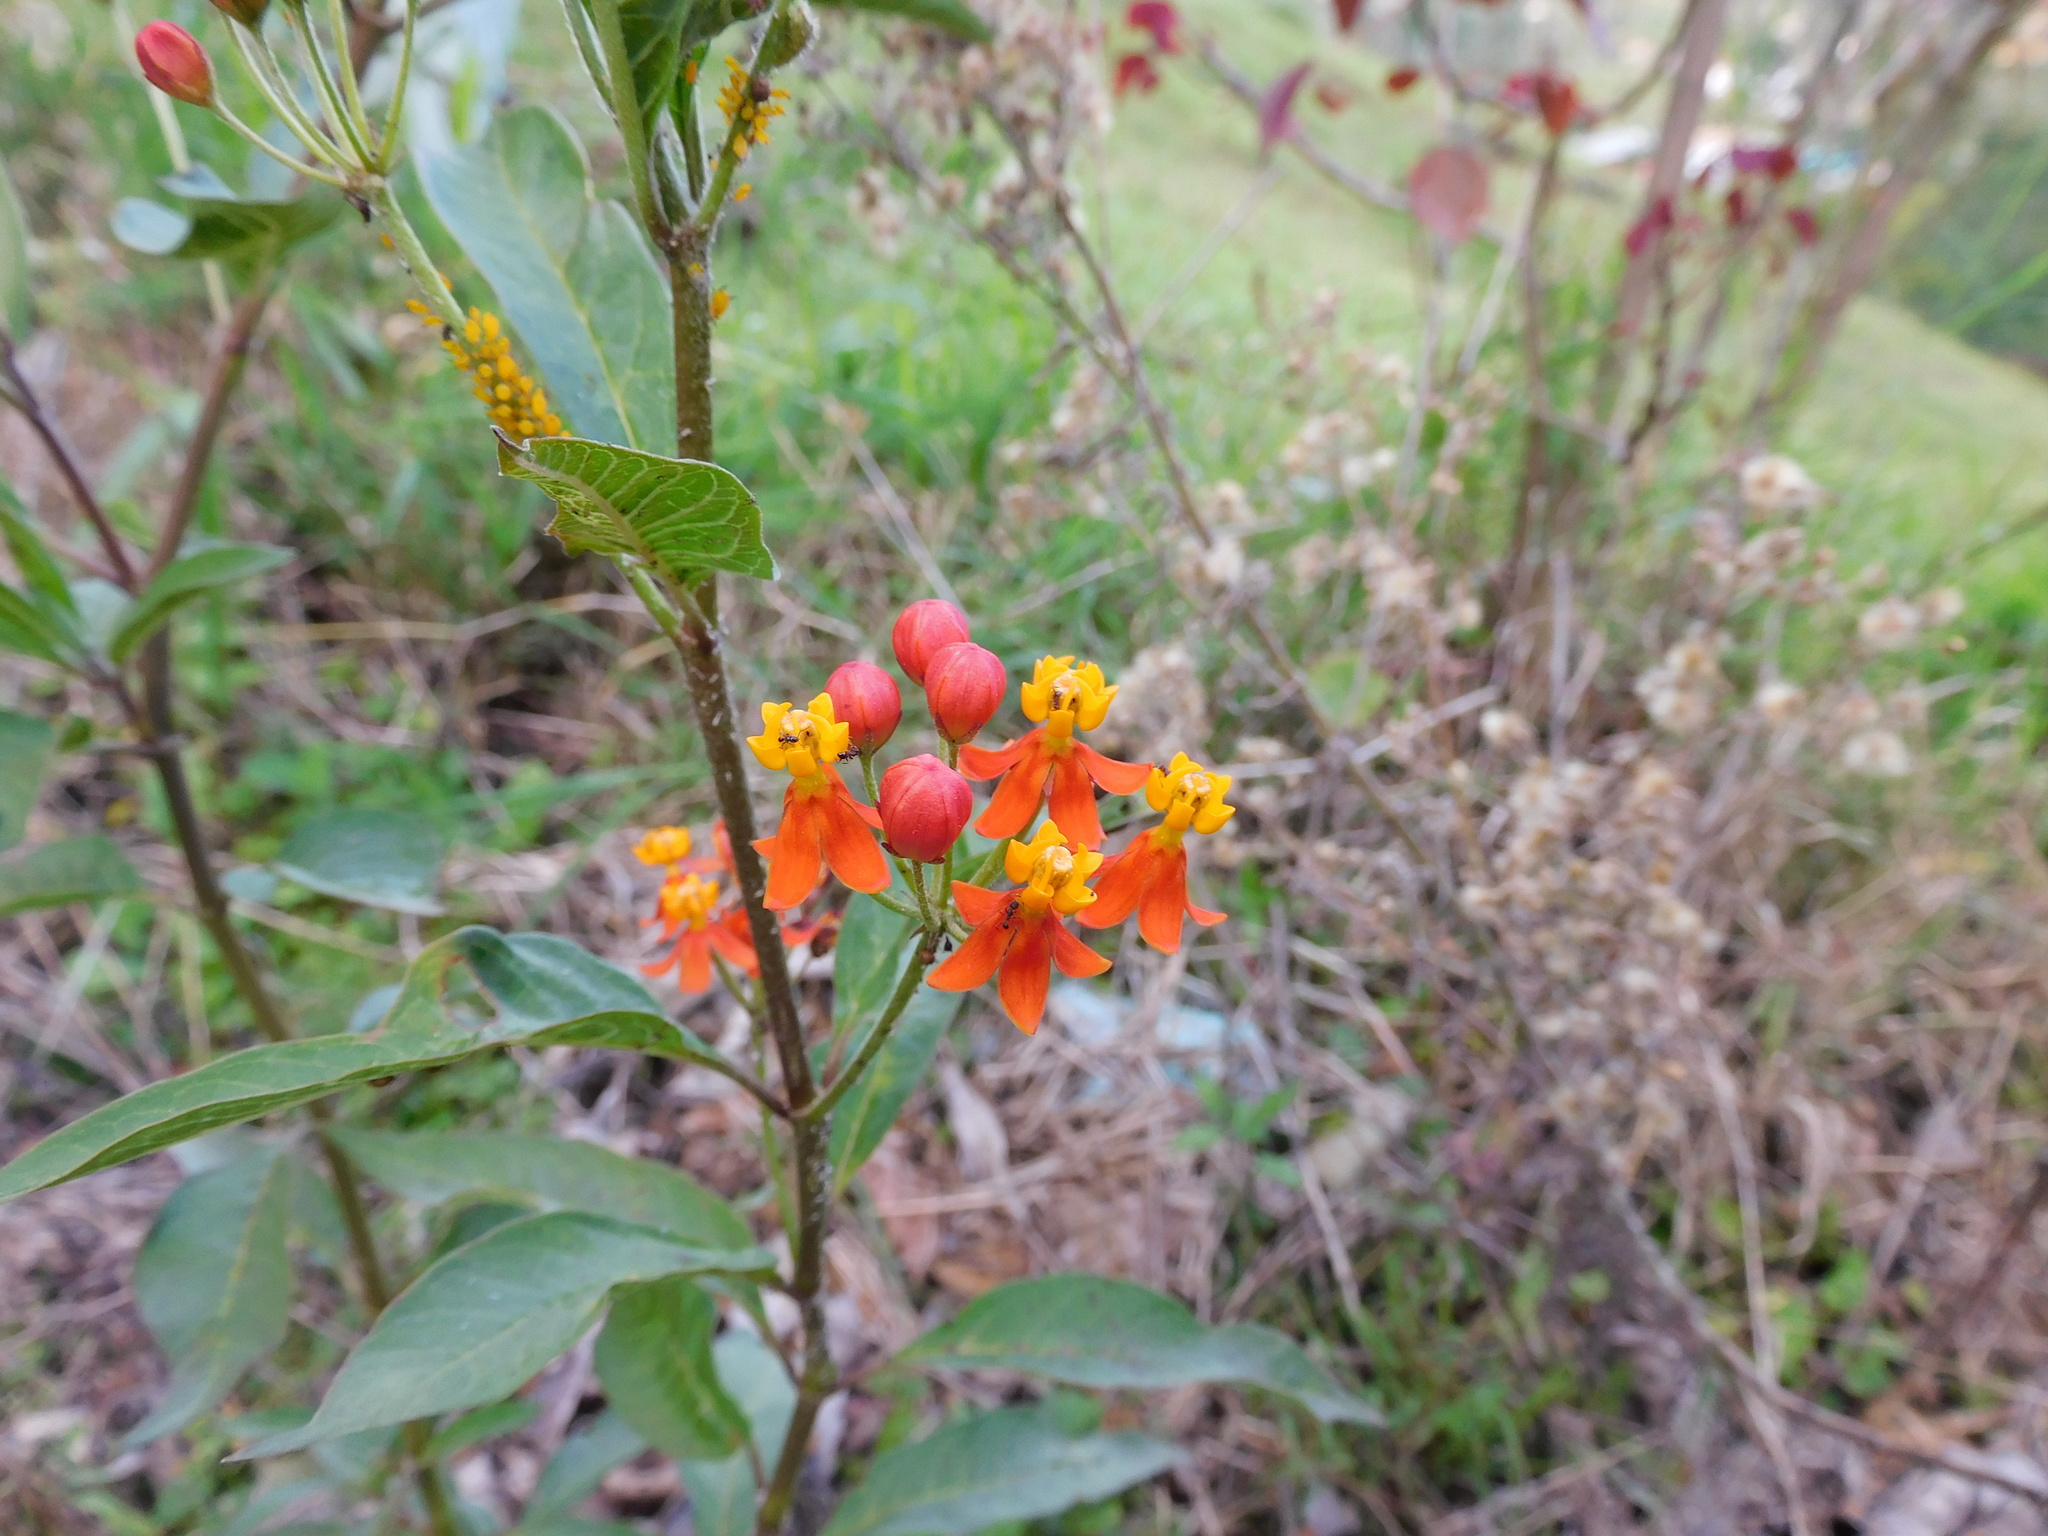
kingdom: Plantae
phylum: Tracheophyta
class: Magnoliopsida
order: Gentianales
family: Apocynaceae
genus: Asclepias
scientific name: Asclepias curassavica
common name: Bloodflower
